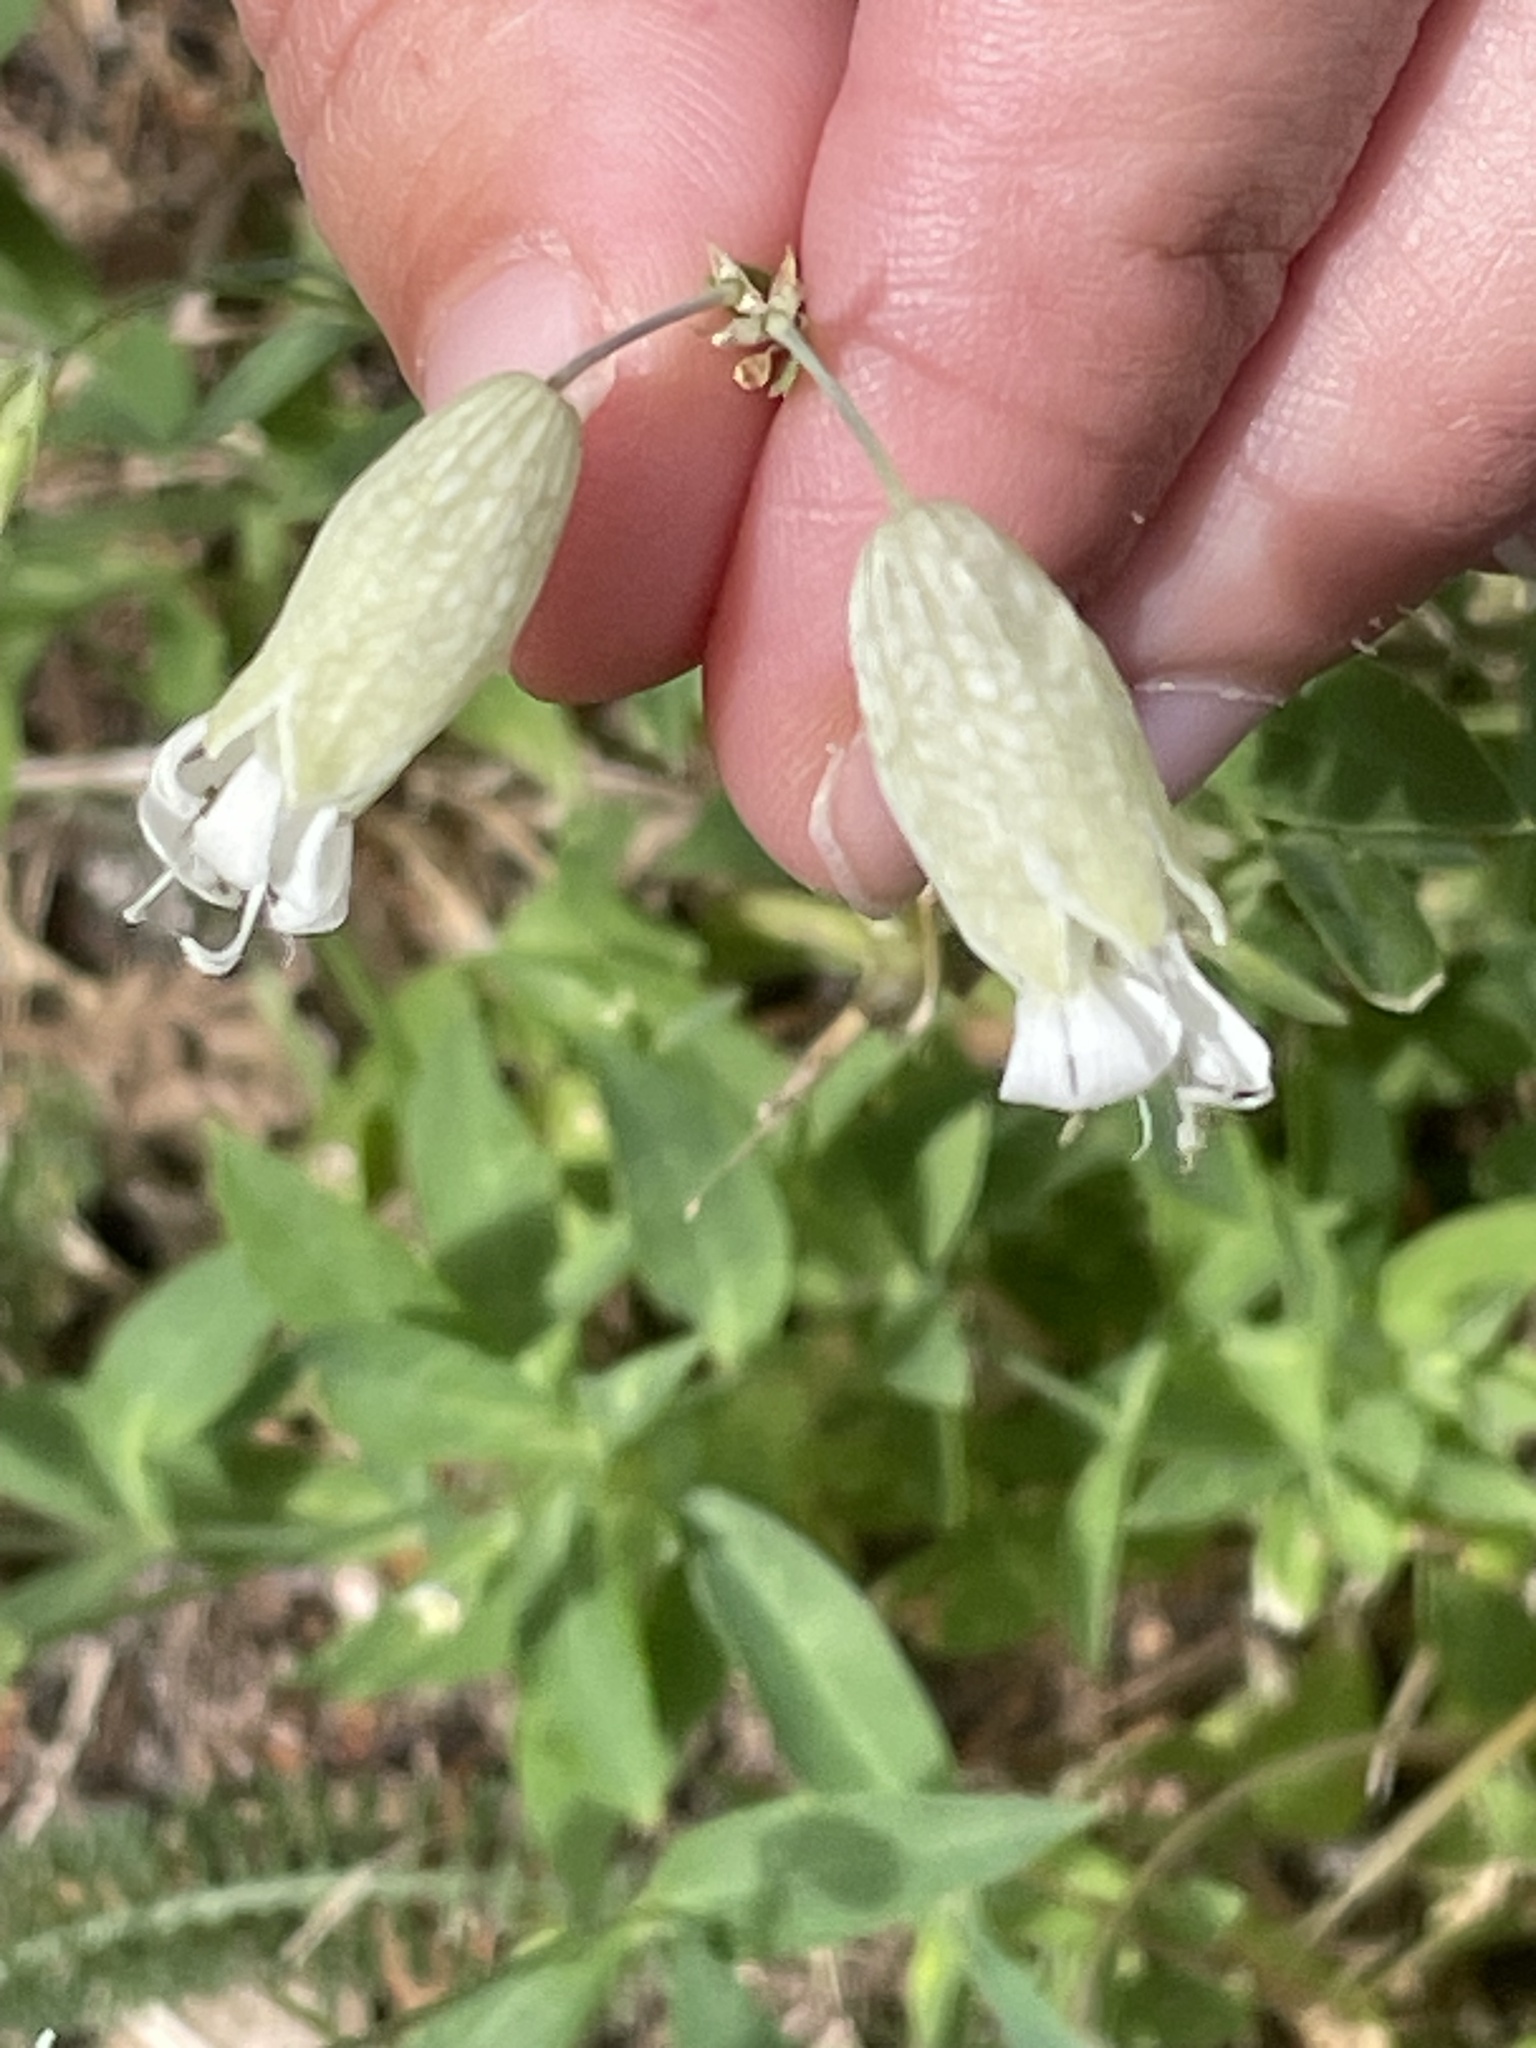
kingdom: Plantae
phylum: Tracheophyta
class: Magnoliopsida
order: Caryophyllales
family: Caryophyllaceae
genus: Silene
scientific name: Silene vulgaris
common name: Bladder campion
